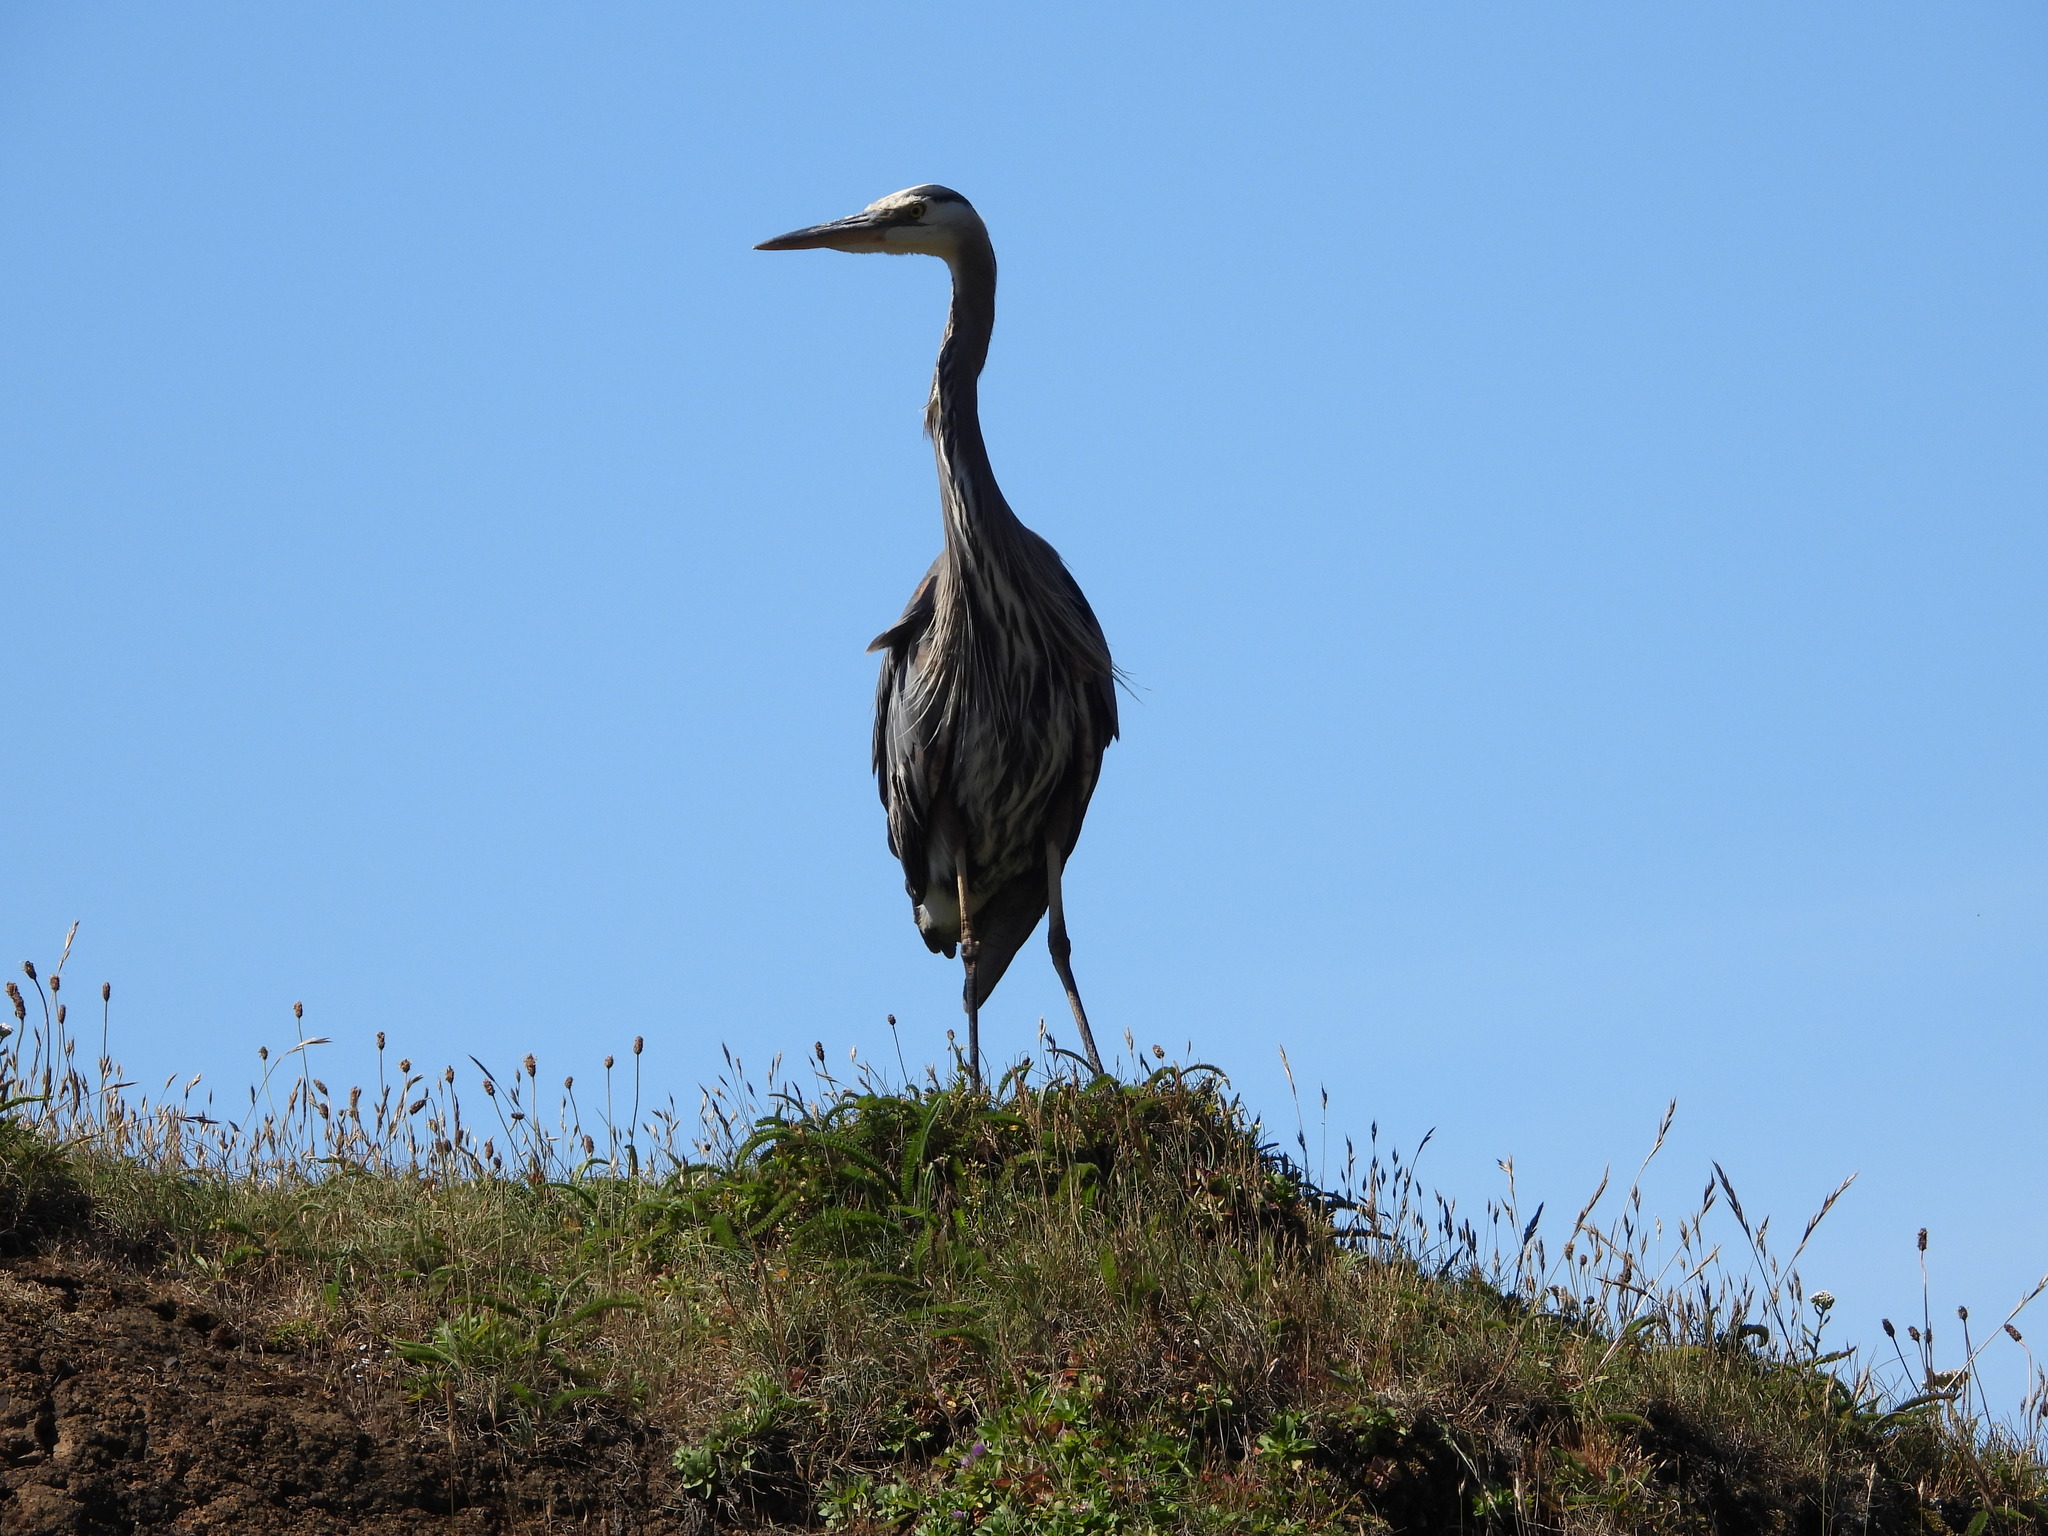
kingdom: Animalia
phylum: Chordata
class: Aves
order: Pelecaniformes
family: Ardeidae
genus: Ardea
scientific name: Ardea herodias
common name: Great blue heron
